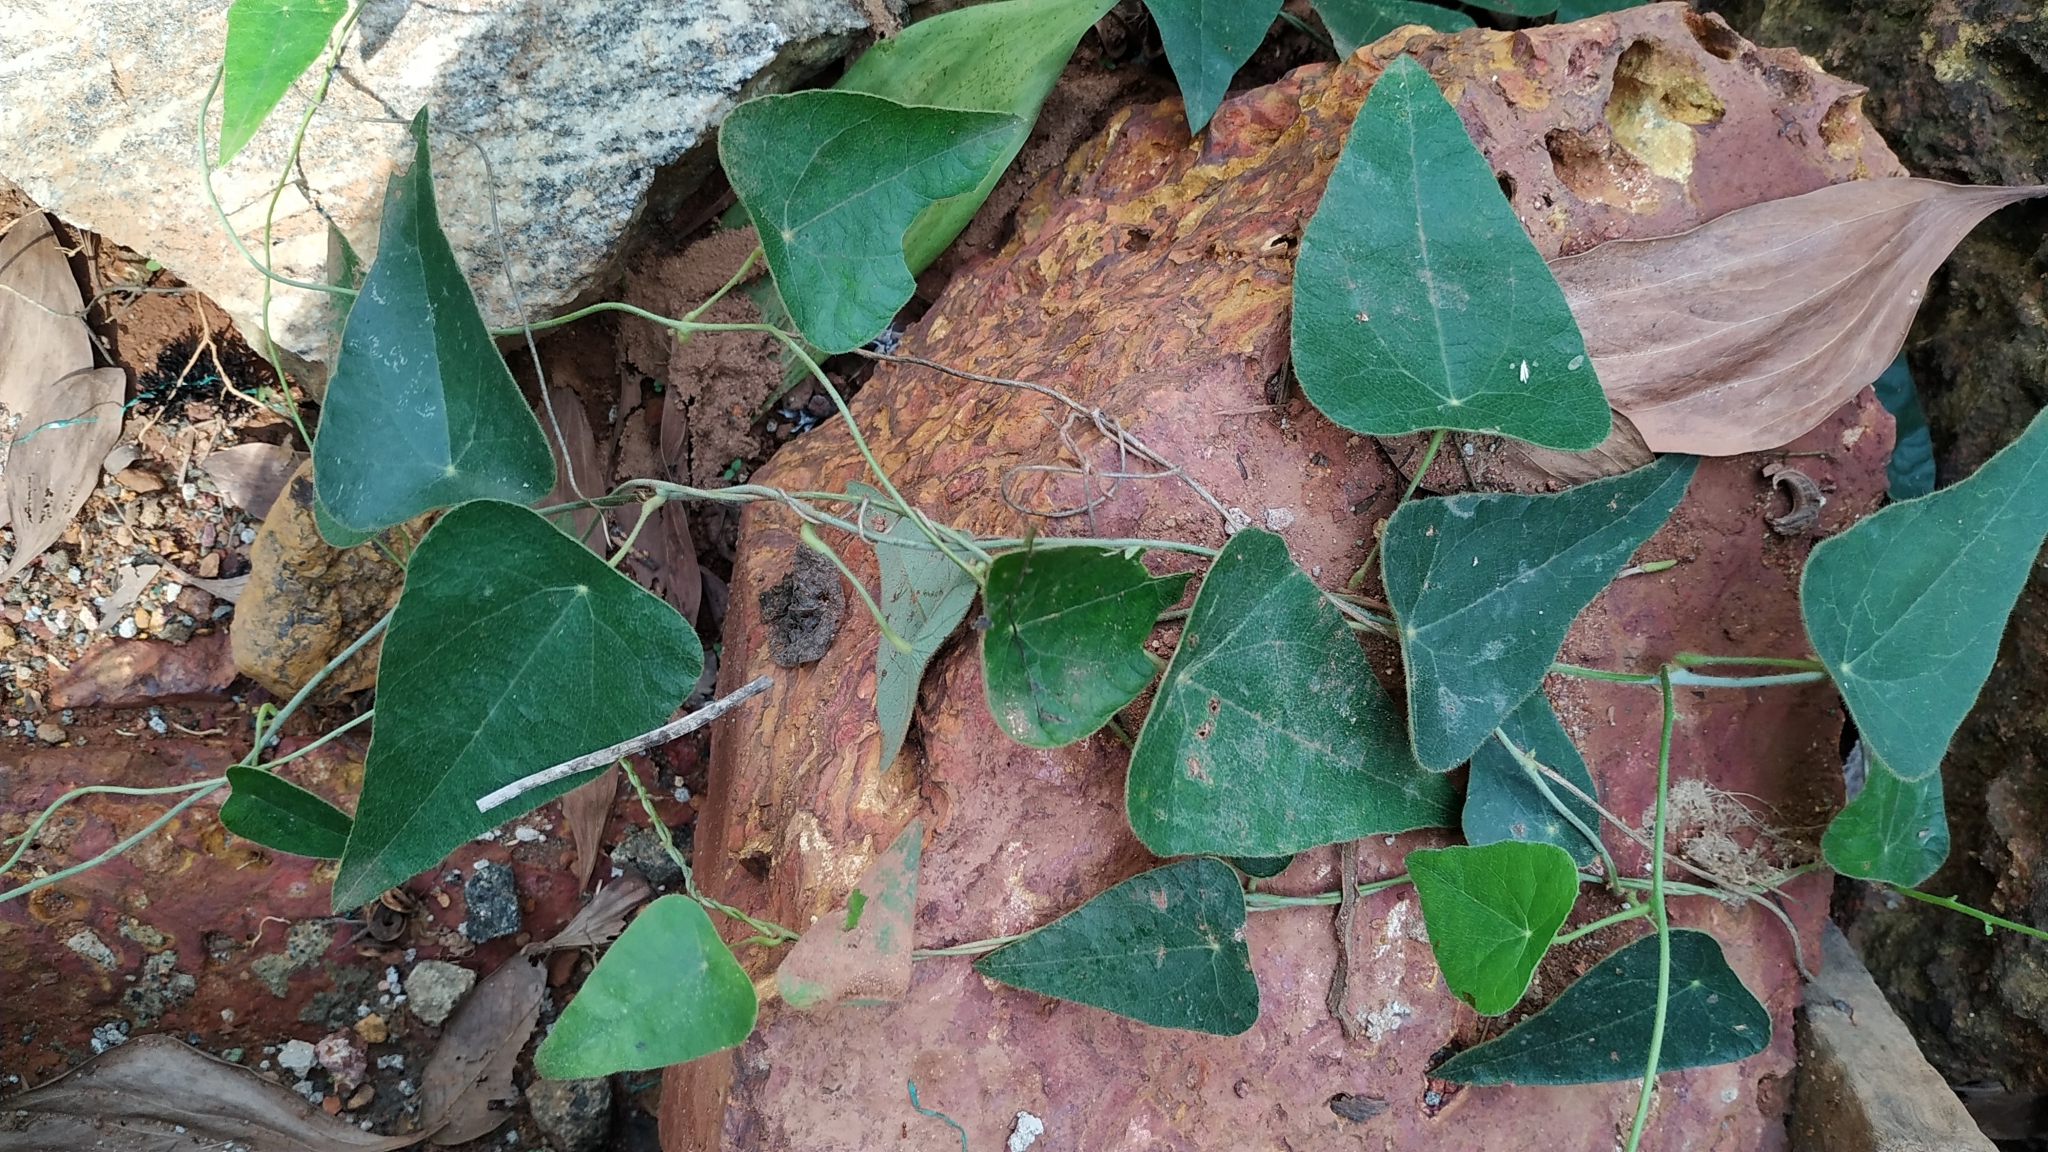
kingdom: Plantae
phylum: Tracheophyta
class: Magnoliopsida
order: Ranunculales
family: Menispermaceae
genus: Cyclea
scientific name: Cyclea peltata
